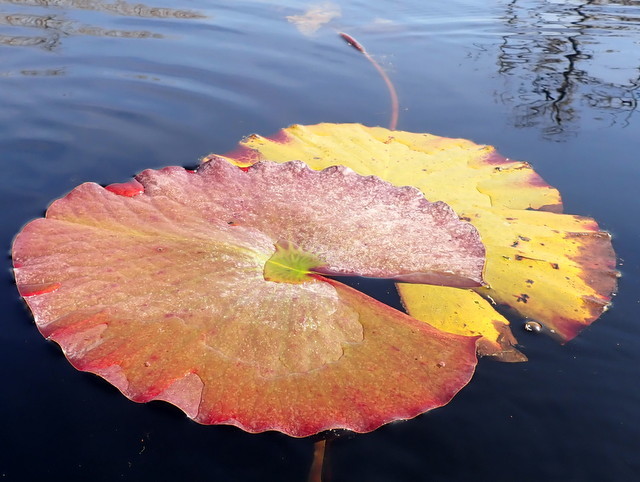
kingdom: Plantae
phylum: Tracheophyta
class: Magnoliopsida
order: Nymphaeales
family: Nymphaeaceae
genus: Nymphaea
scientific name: Nymphaea odorata
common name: Fragrant water-lily
